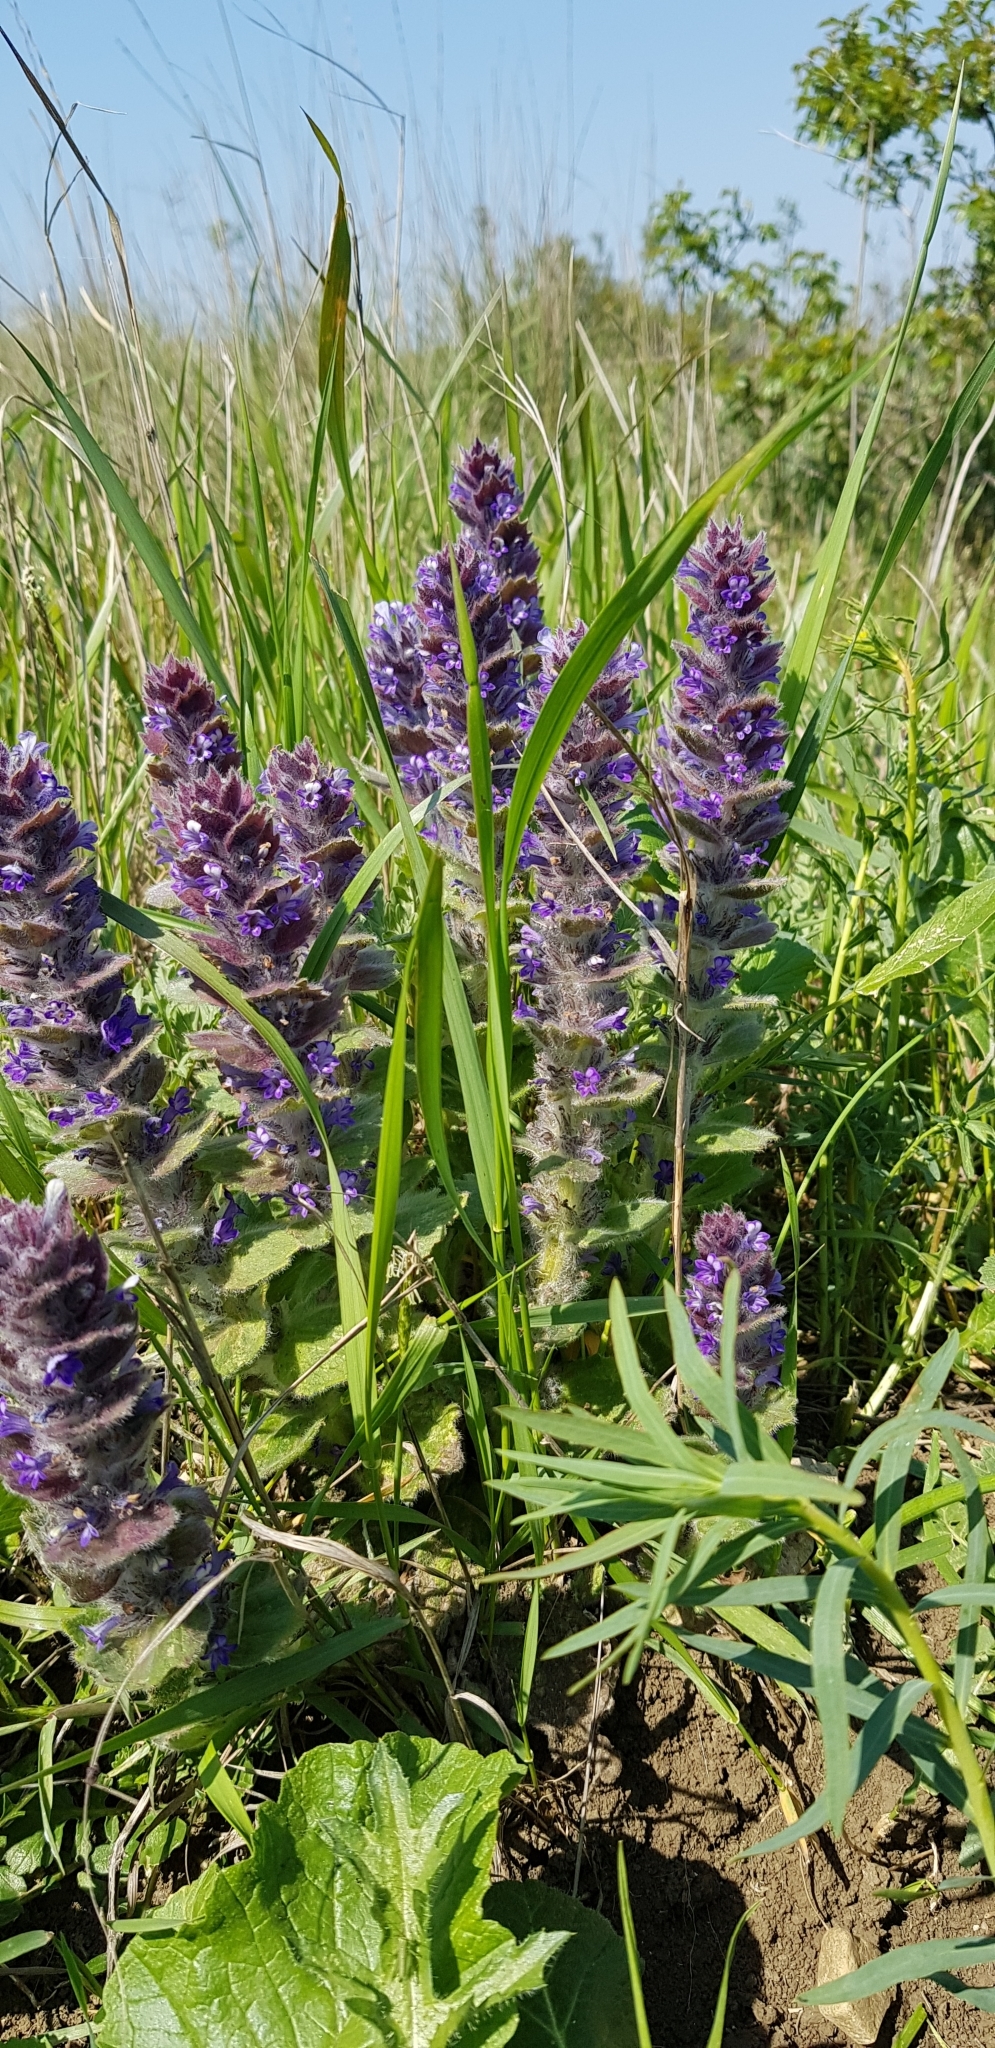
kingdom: Plantae
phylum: Tracheophyta
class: Magnoliopsida
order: Lamiales
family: Lamiaceae
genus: Ajuga
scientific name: Ajuga orientalis
